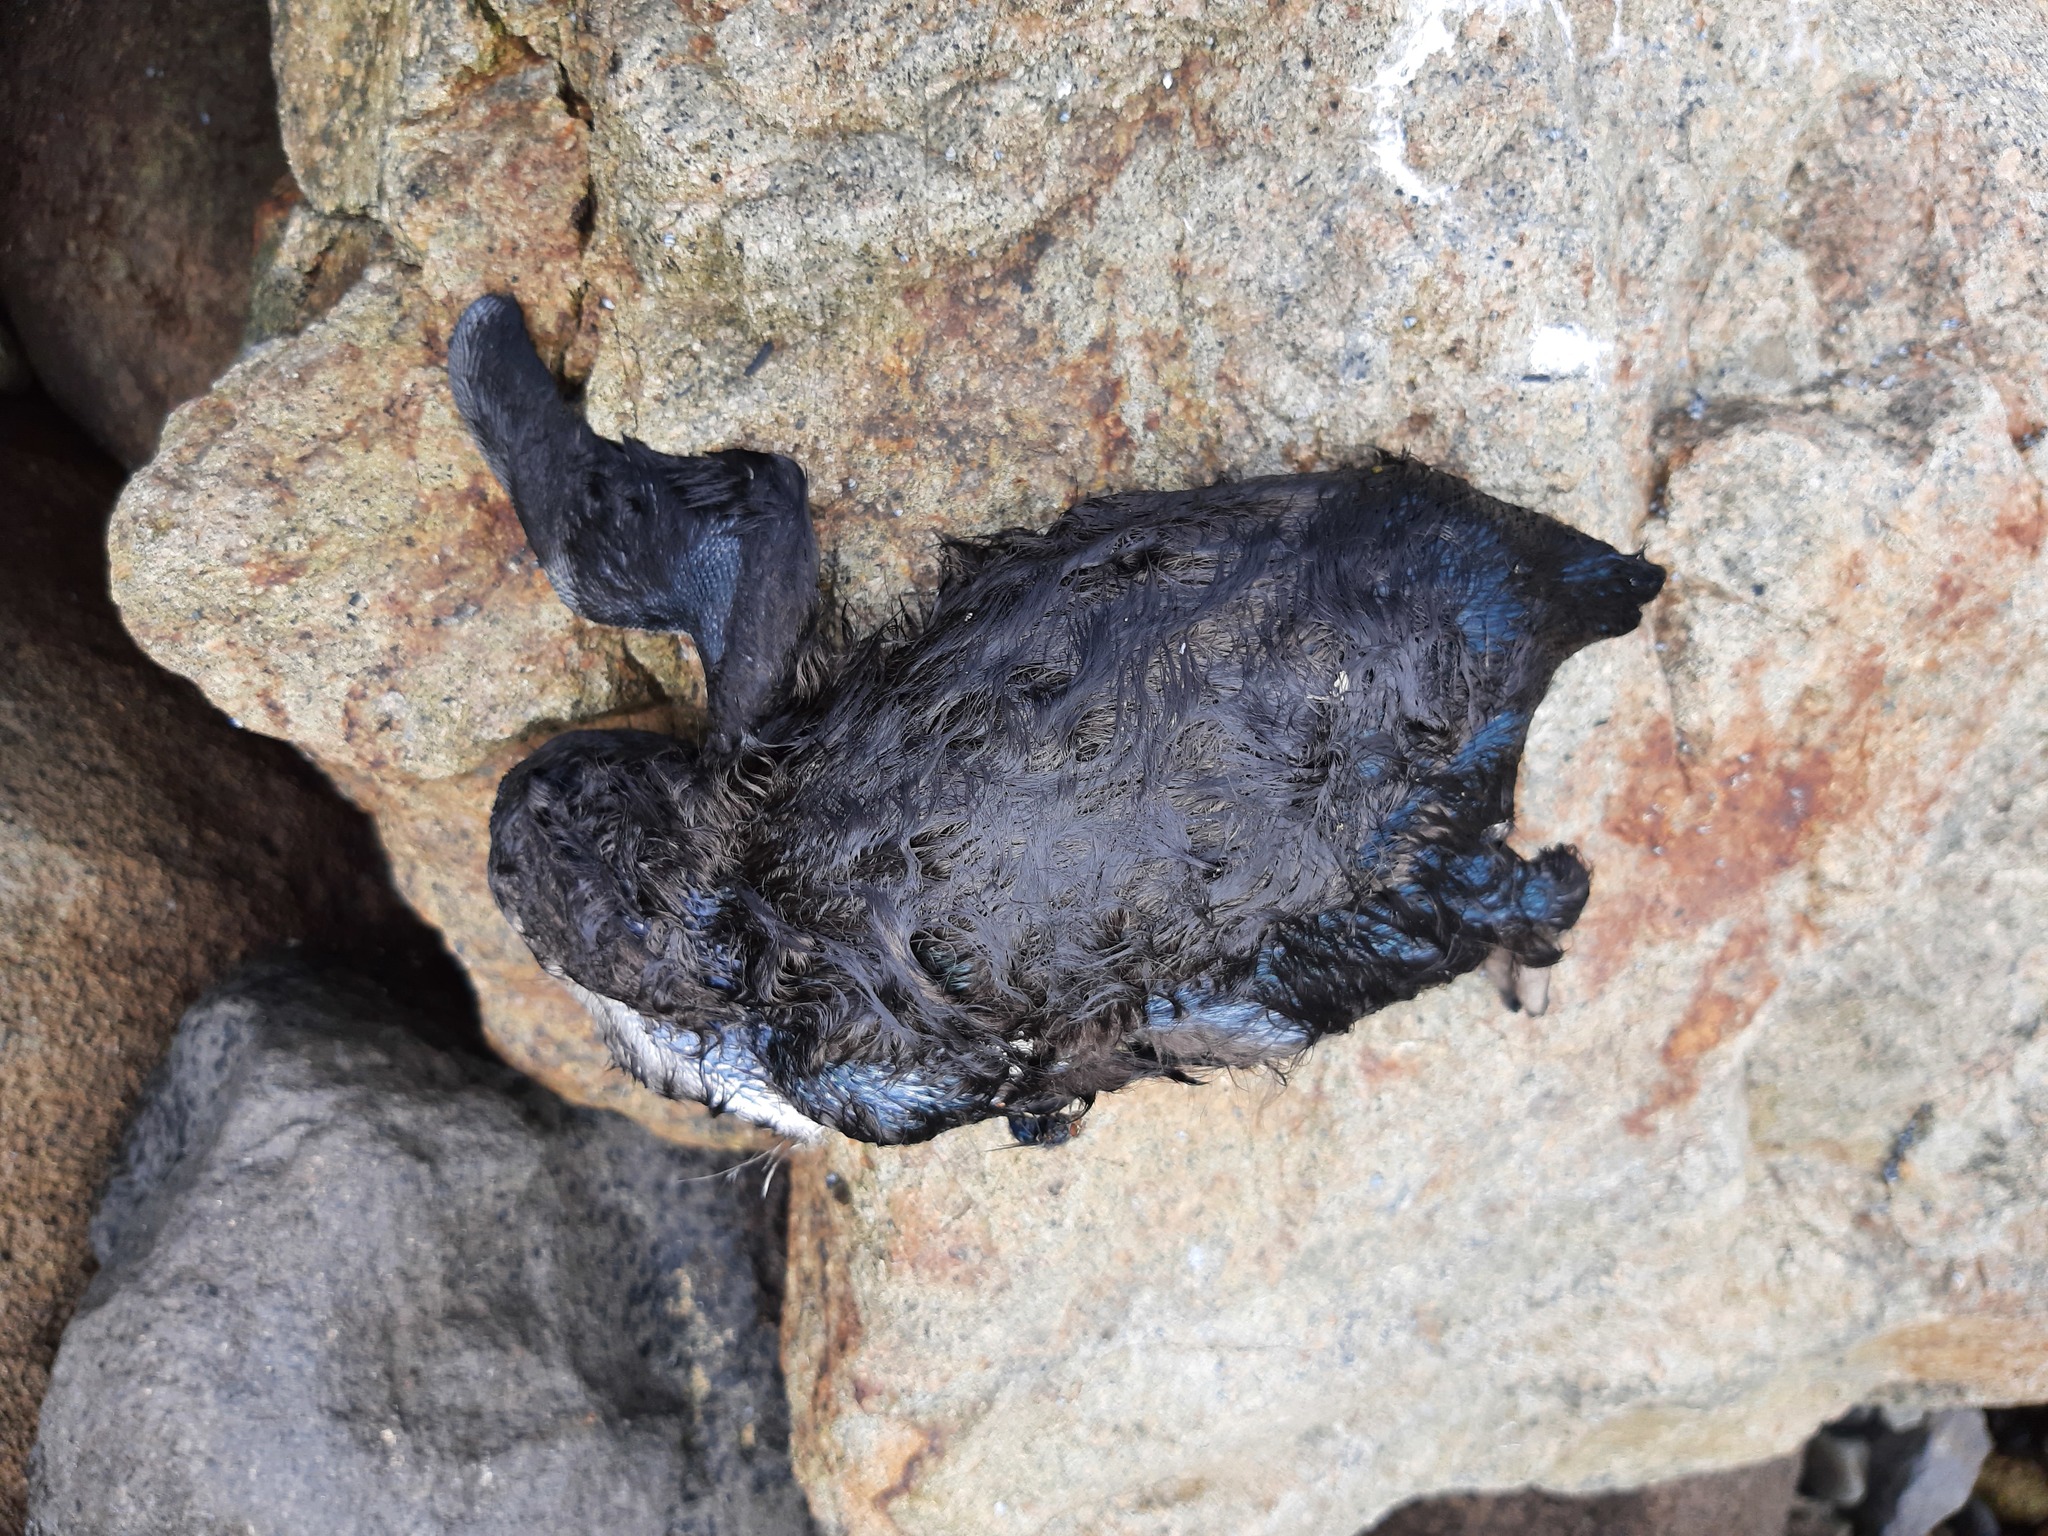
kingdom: Animalia
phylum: Chordata
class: Aves
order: Sphenisciformes
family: Spheniscidae
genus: Eudyptula
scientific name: Eudyptula minor
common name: Little penguin
